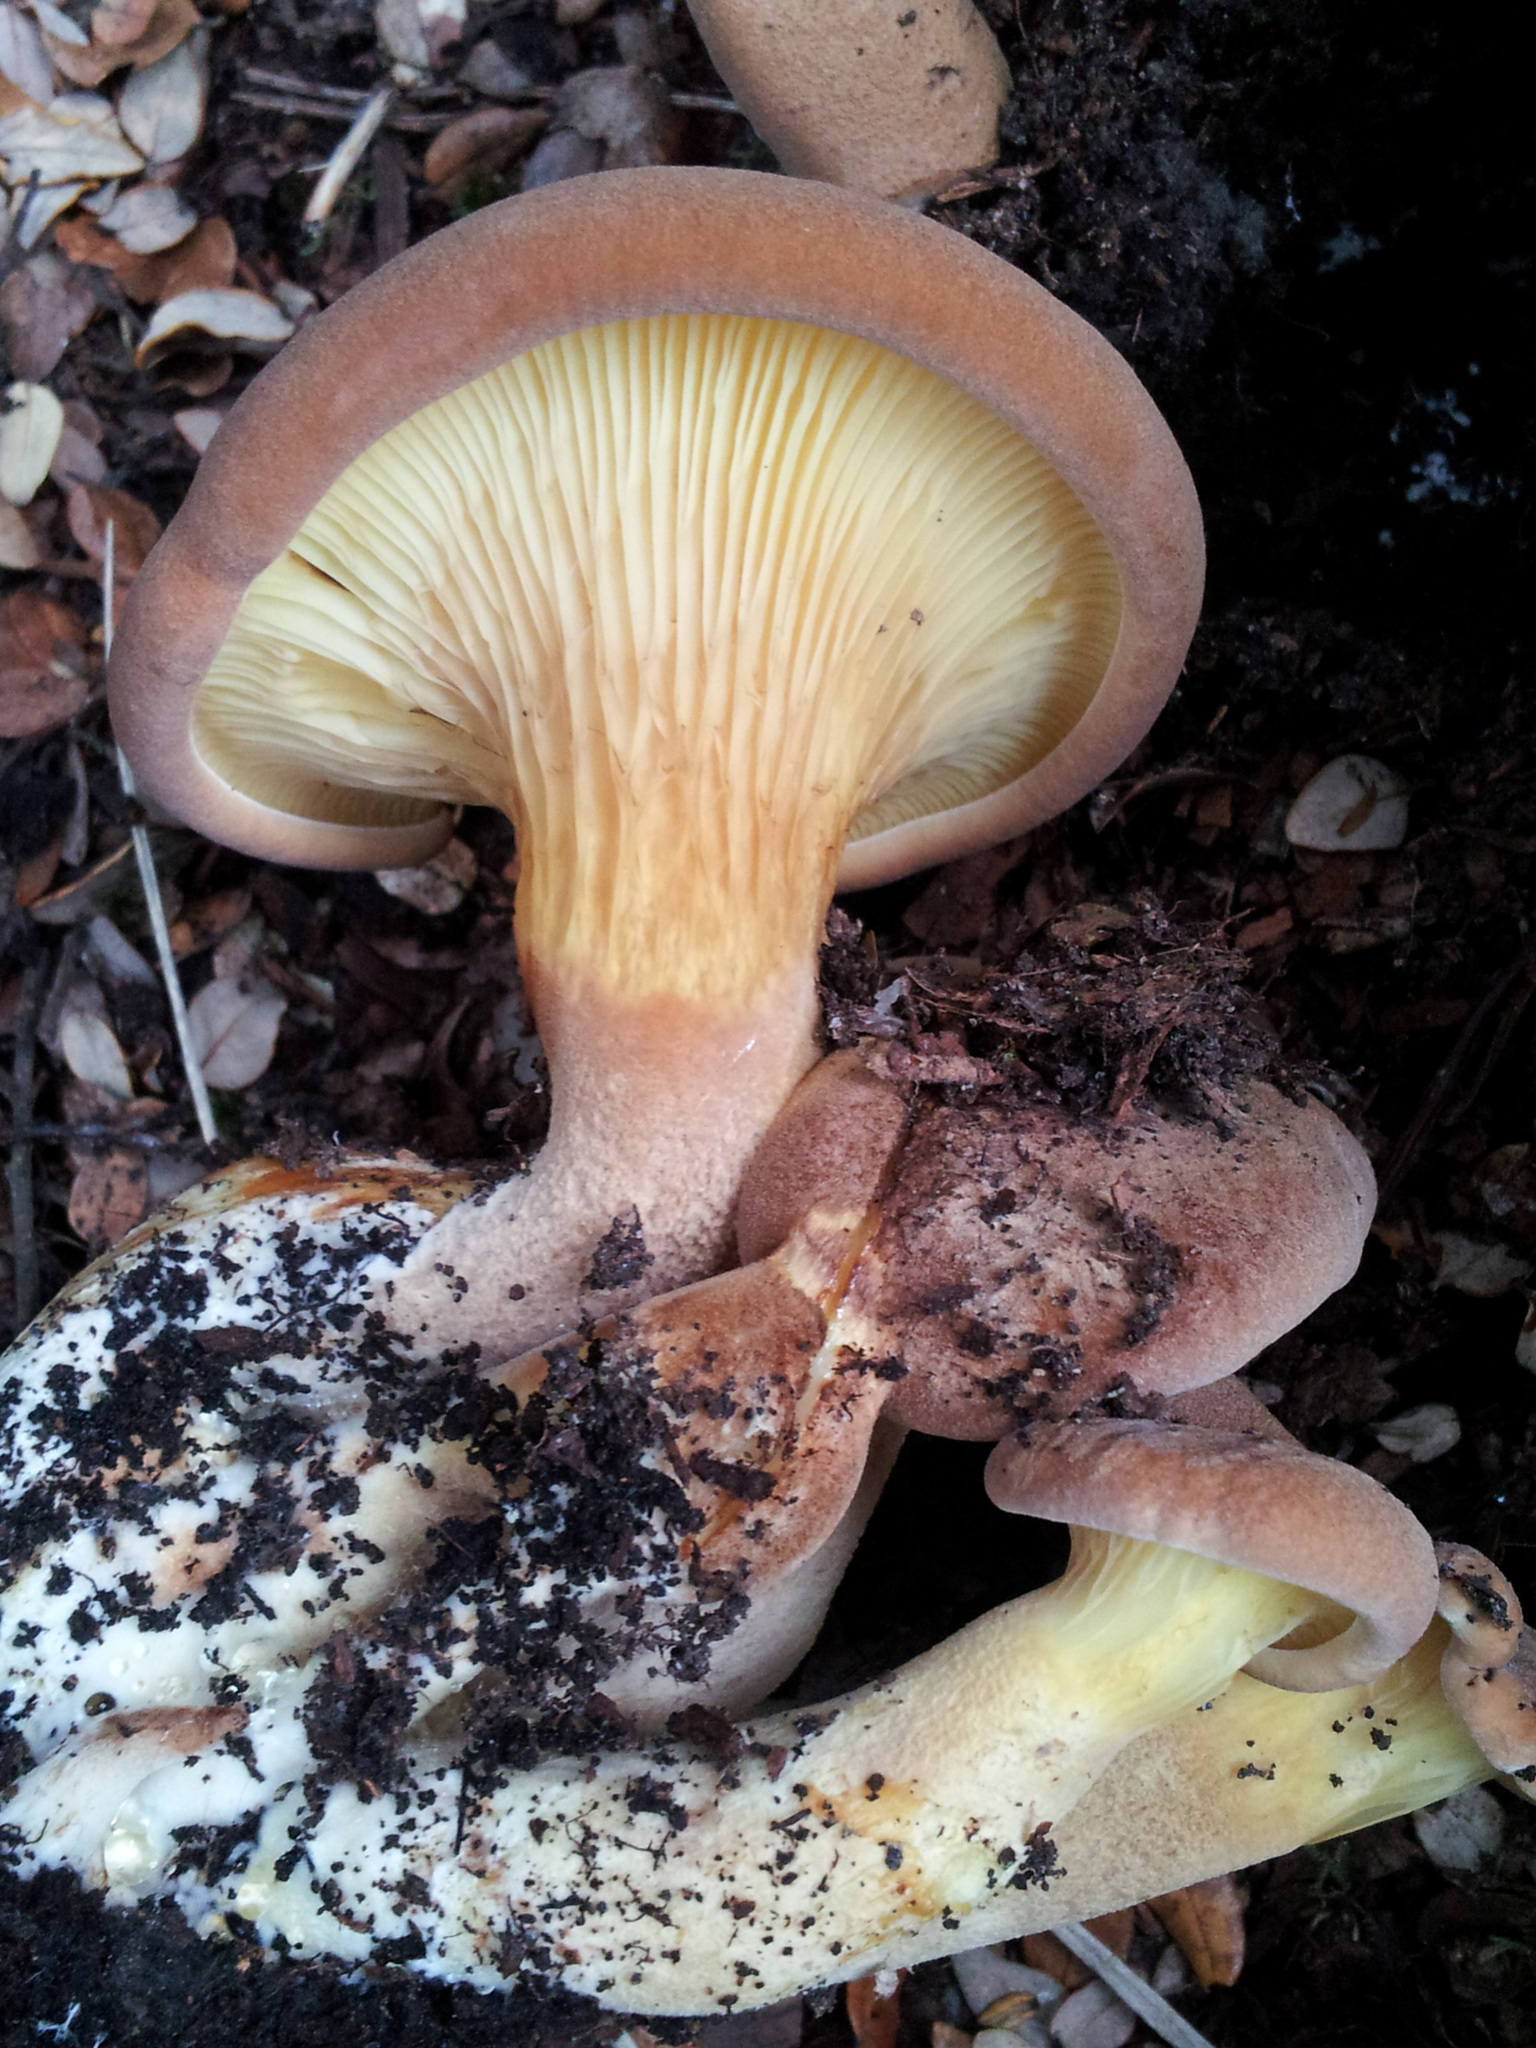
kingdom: Fungi
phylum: Basidiomycota
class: Agaricomycetes
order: Boletales
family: Serpulaceae
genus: Austropaxillus
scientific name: Austropaxillus nothofagi
